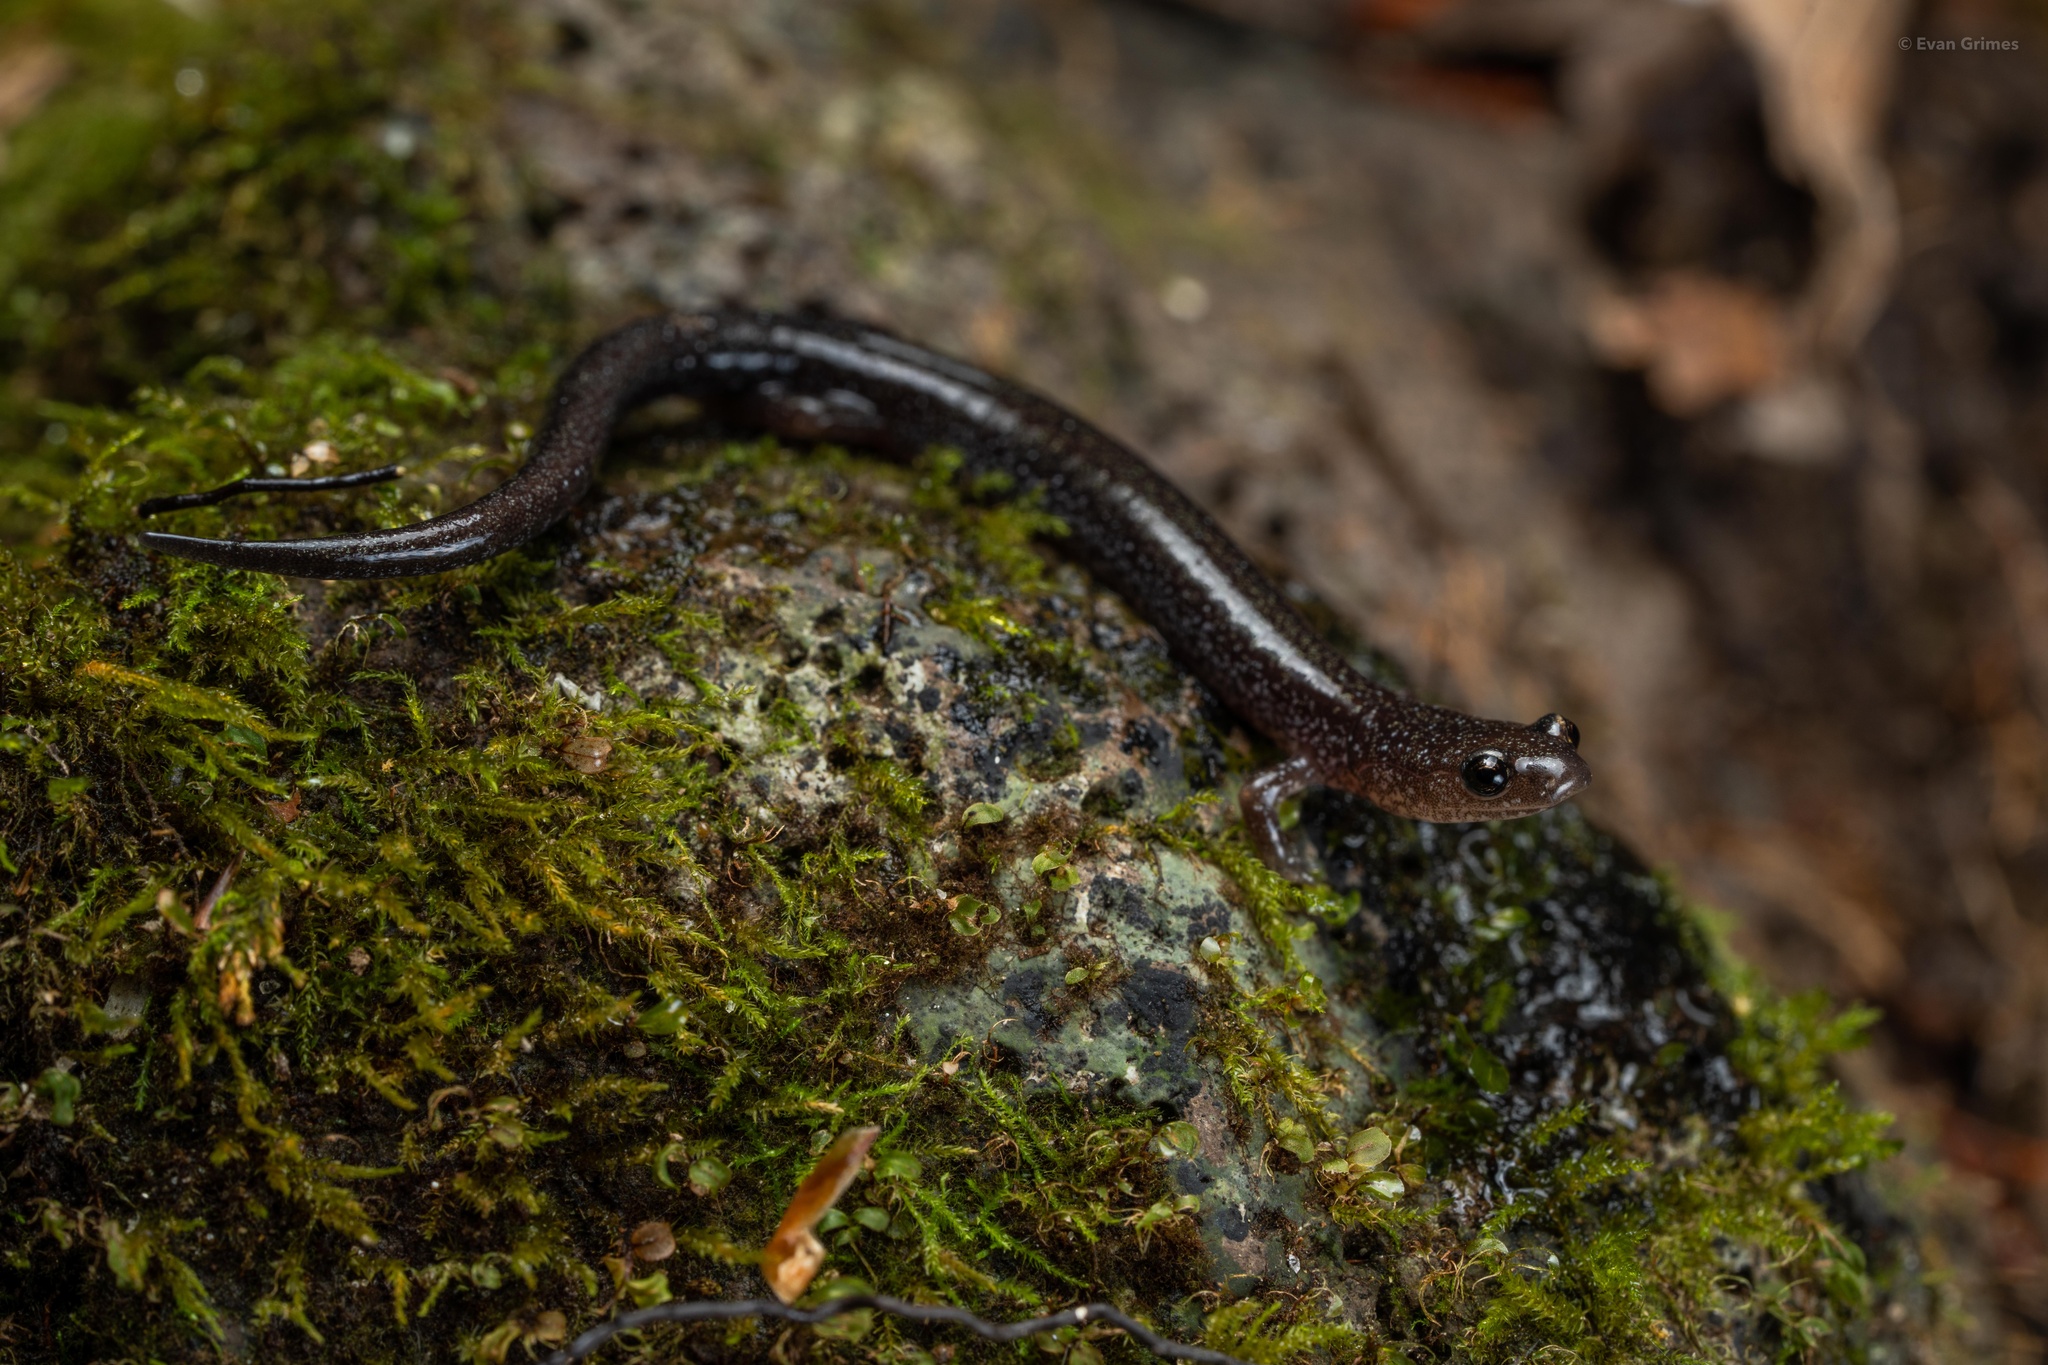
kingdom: Animalia
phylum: Chordata
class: Amphibia
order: Caudata
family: Plethodontidae
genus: Plethodon
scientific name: Plethodon cinereus
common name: Redback salamander
